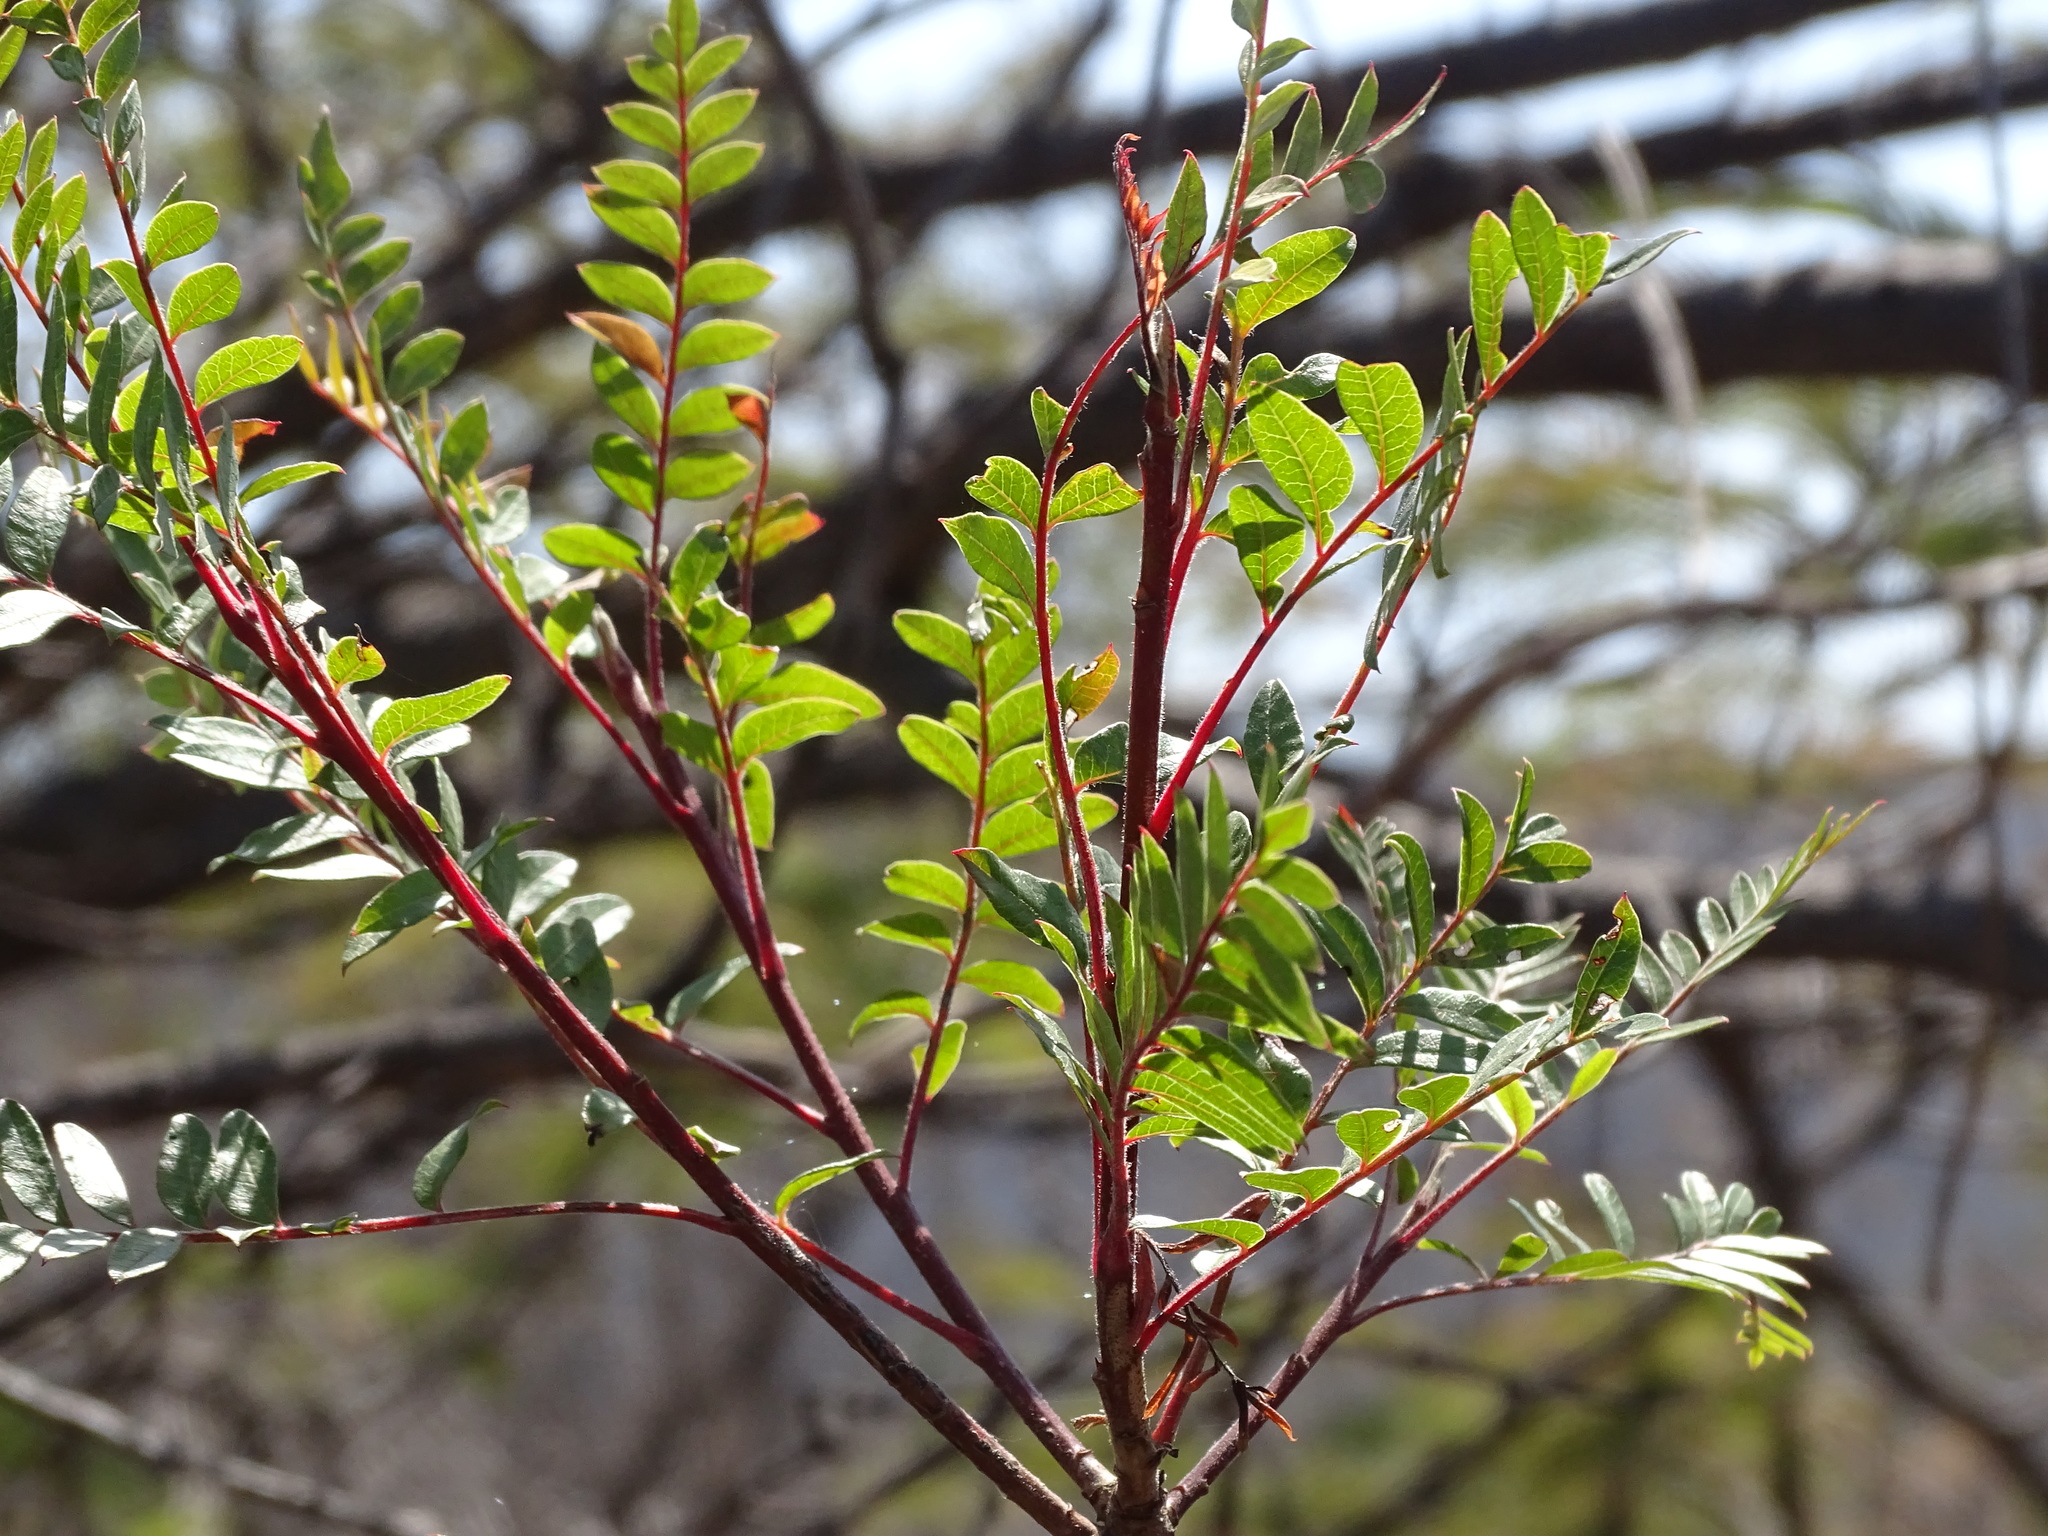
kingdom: Plantae
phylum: Tracheophyta
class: Magnoliopsida
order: Sapindales
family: Anacardiaceae
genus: Pistacia
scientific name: Pistacia mexicana
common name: Mexican pistachio
